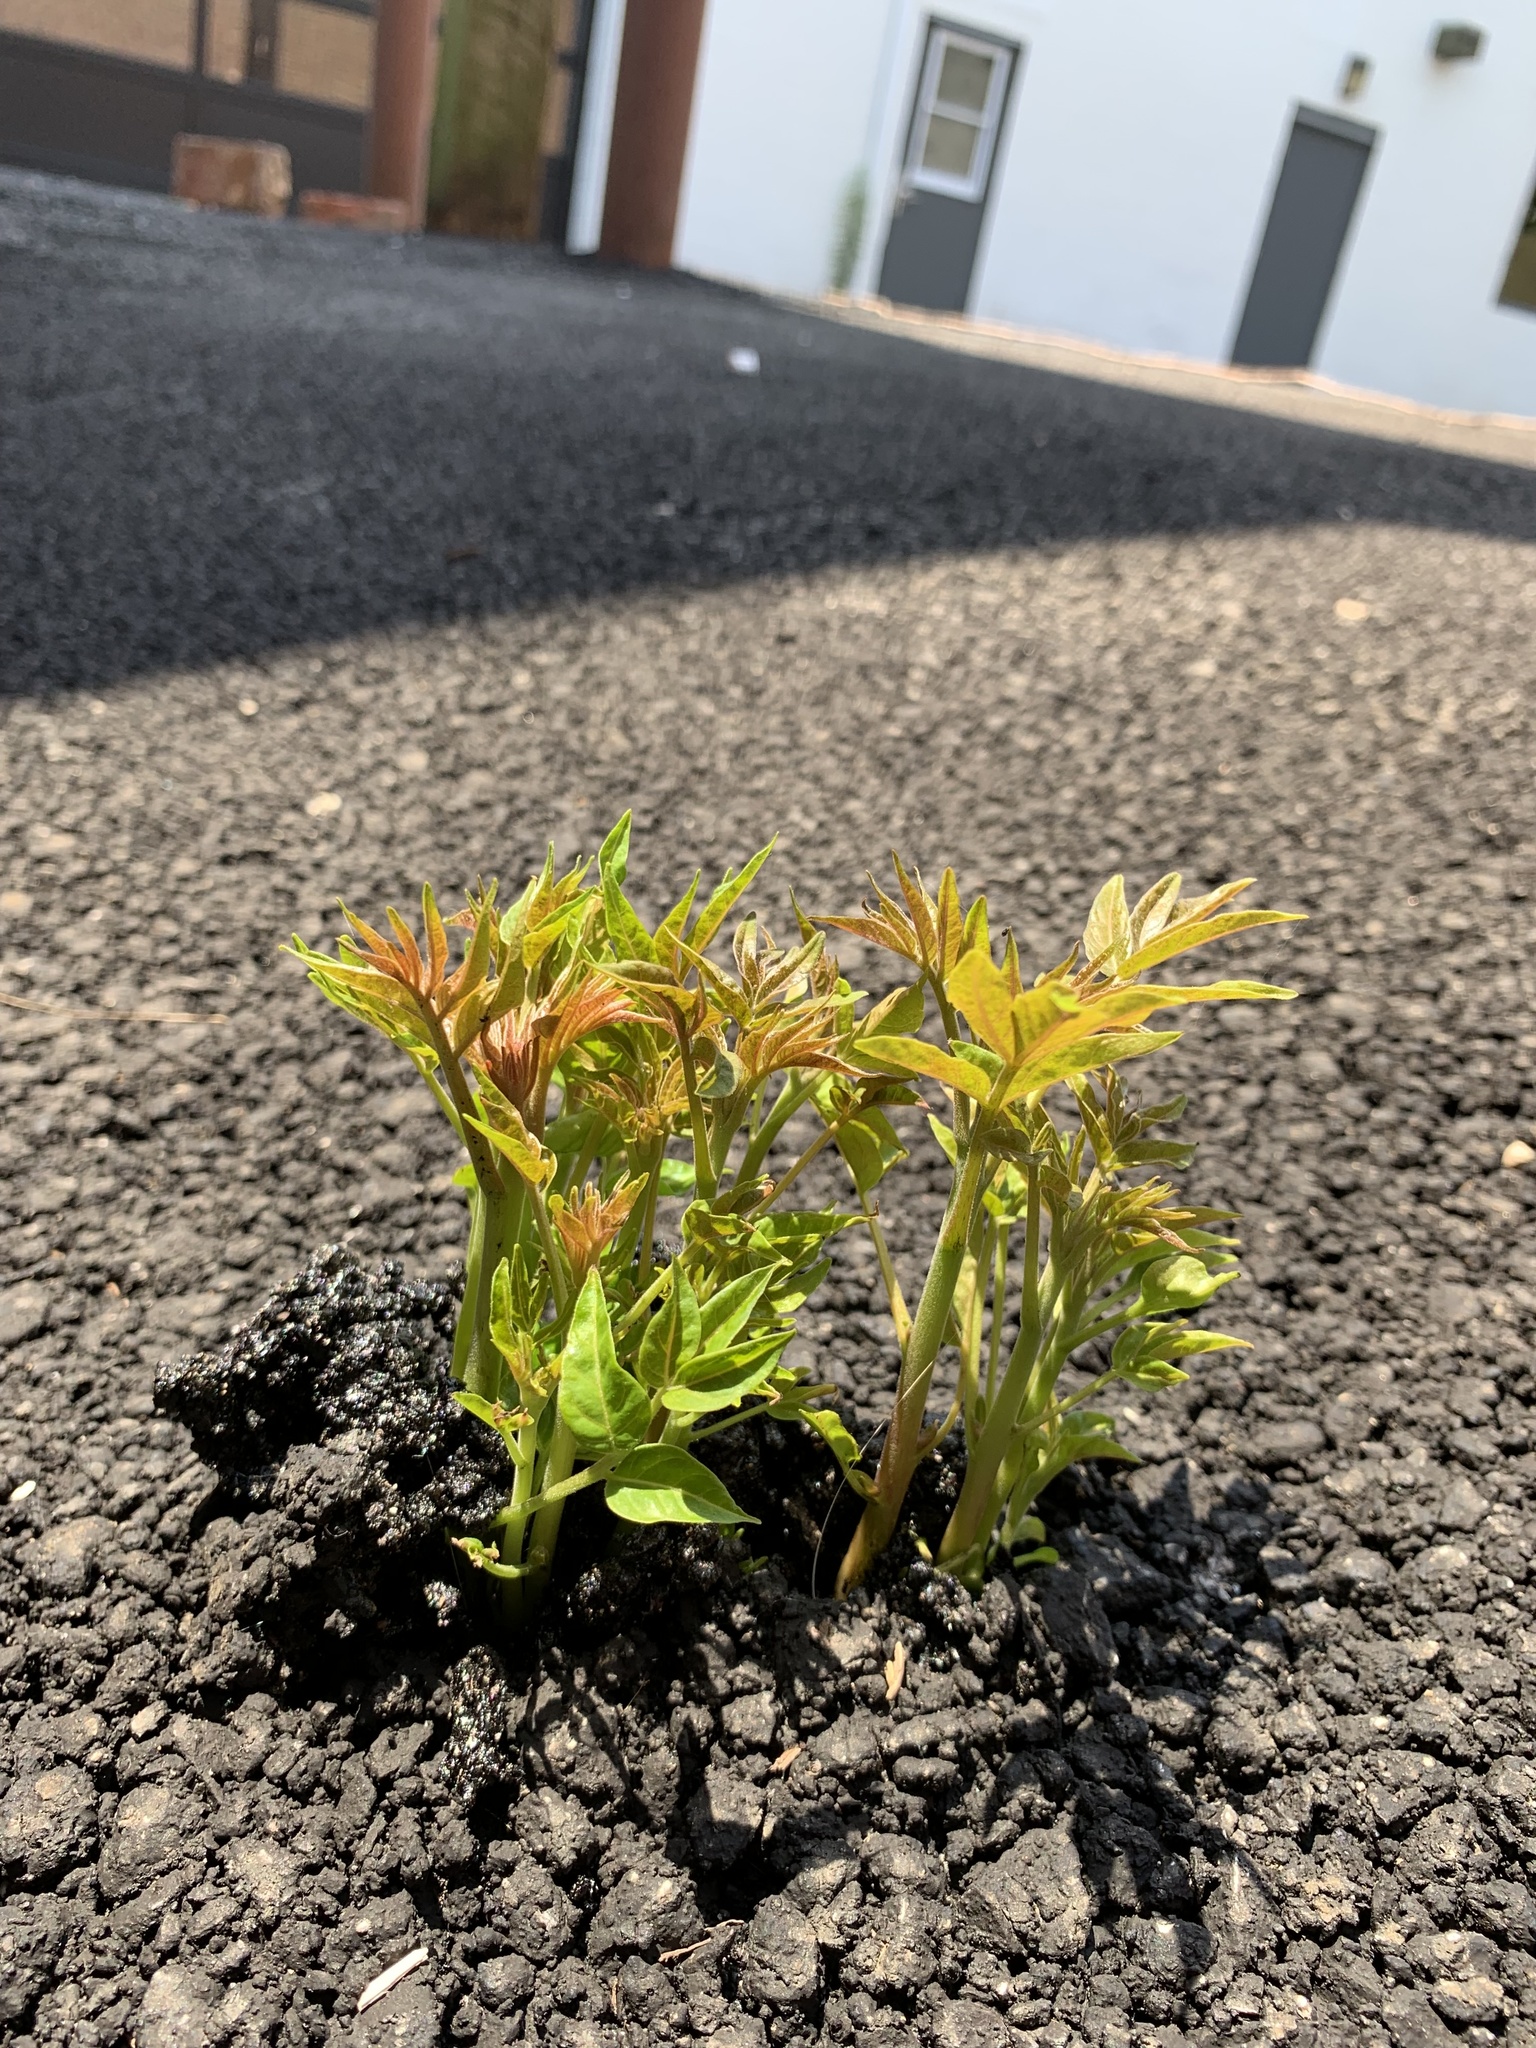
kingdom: Plantae
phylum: Tracheophyta
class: Magnoliopsida
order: Sapindales
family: Simaroubaceae
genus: Ailanthus
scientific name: Ailanthus altissima
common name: Tree-of-heaven
